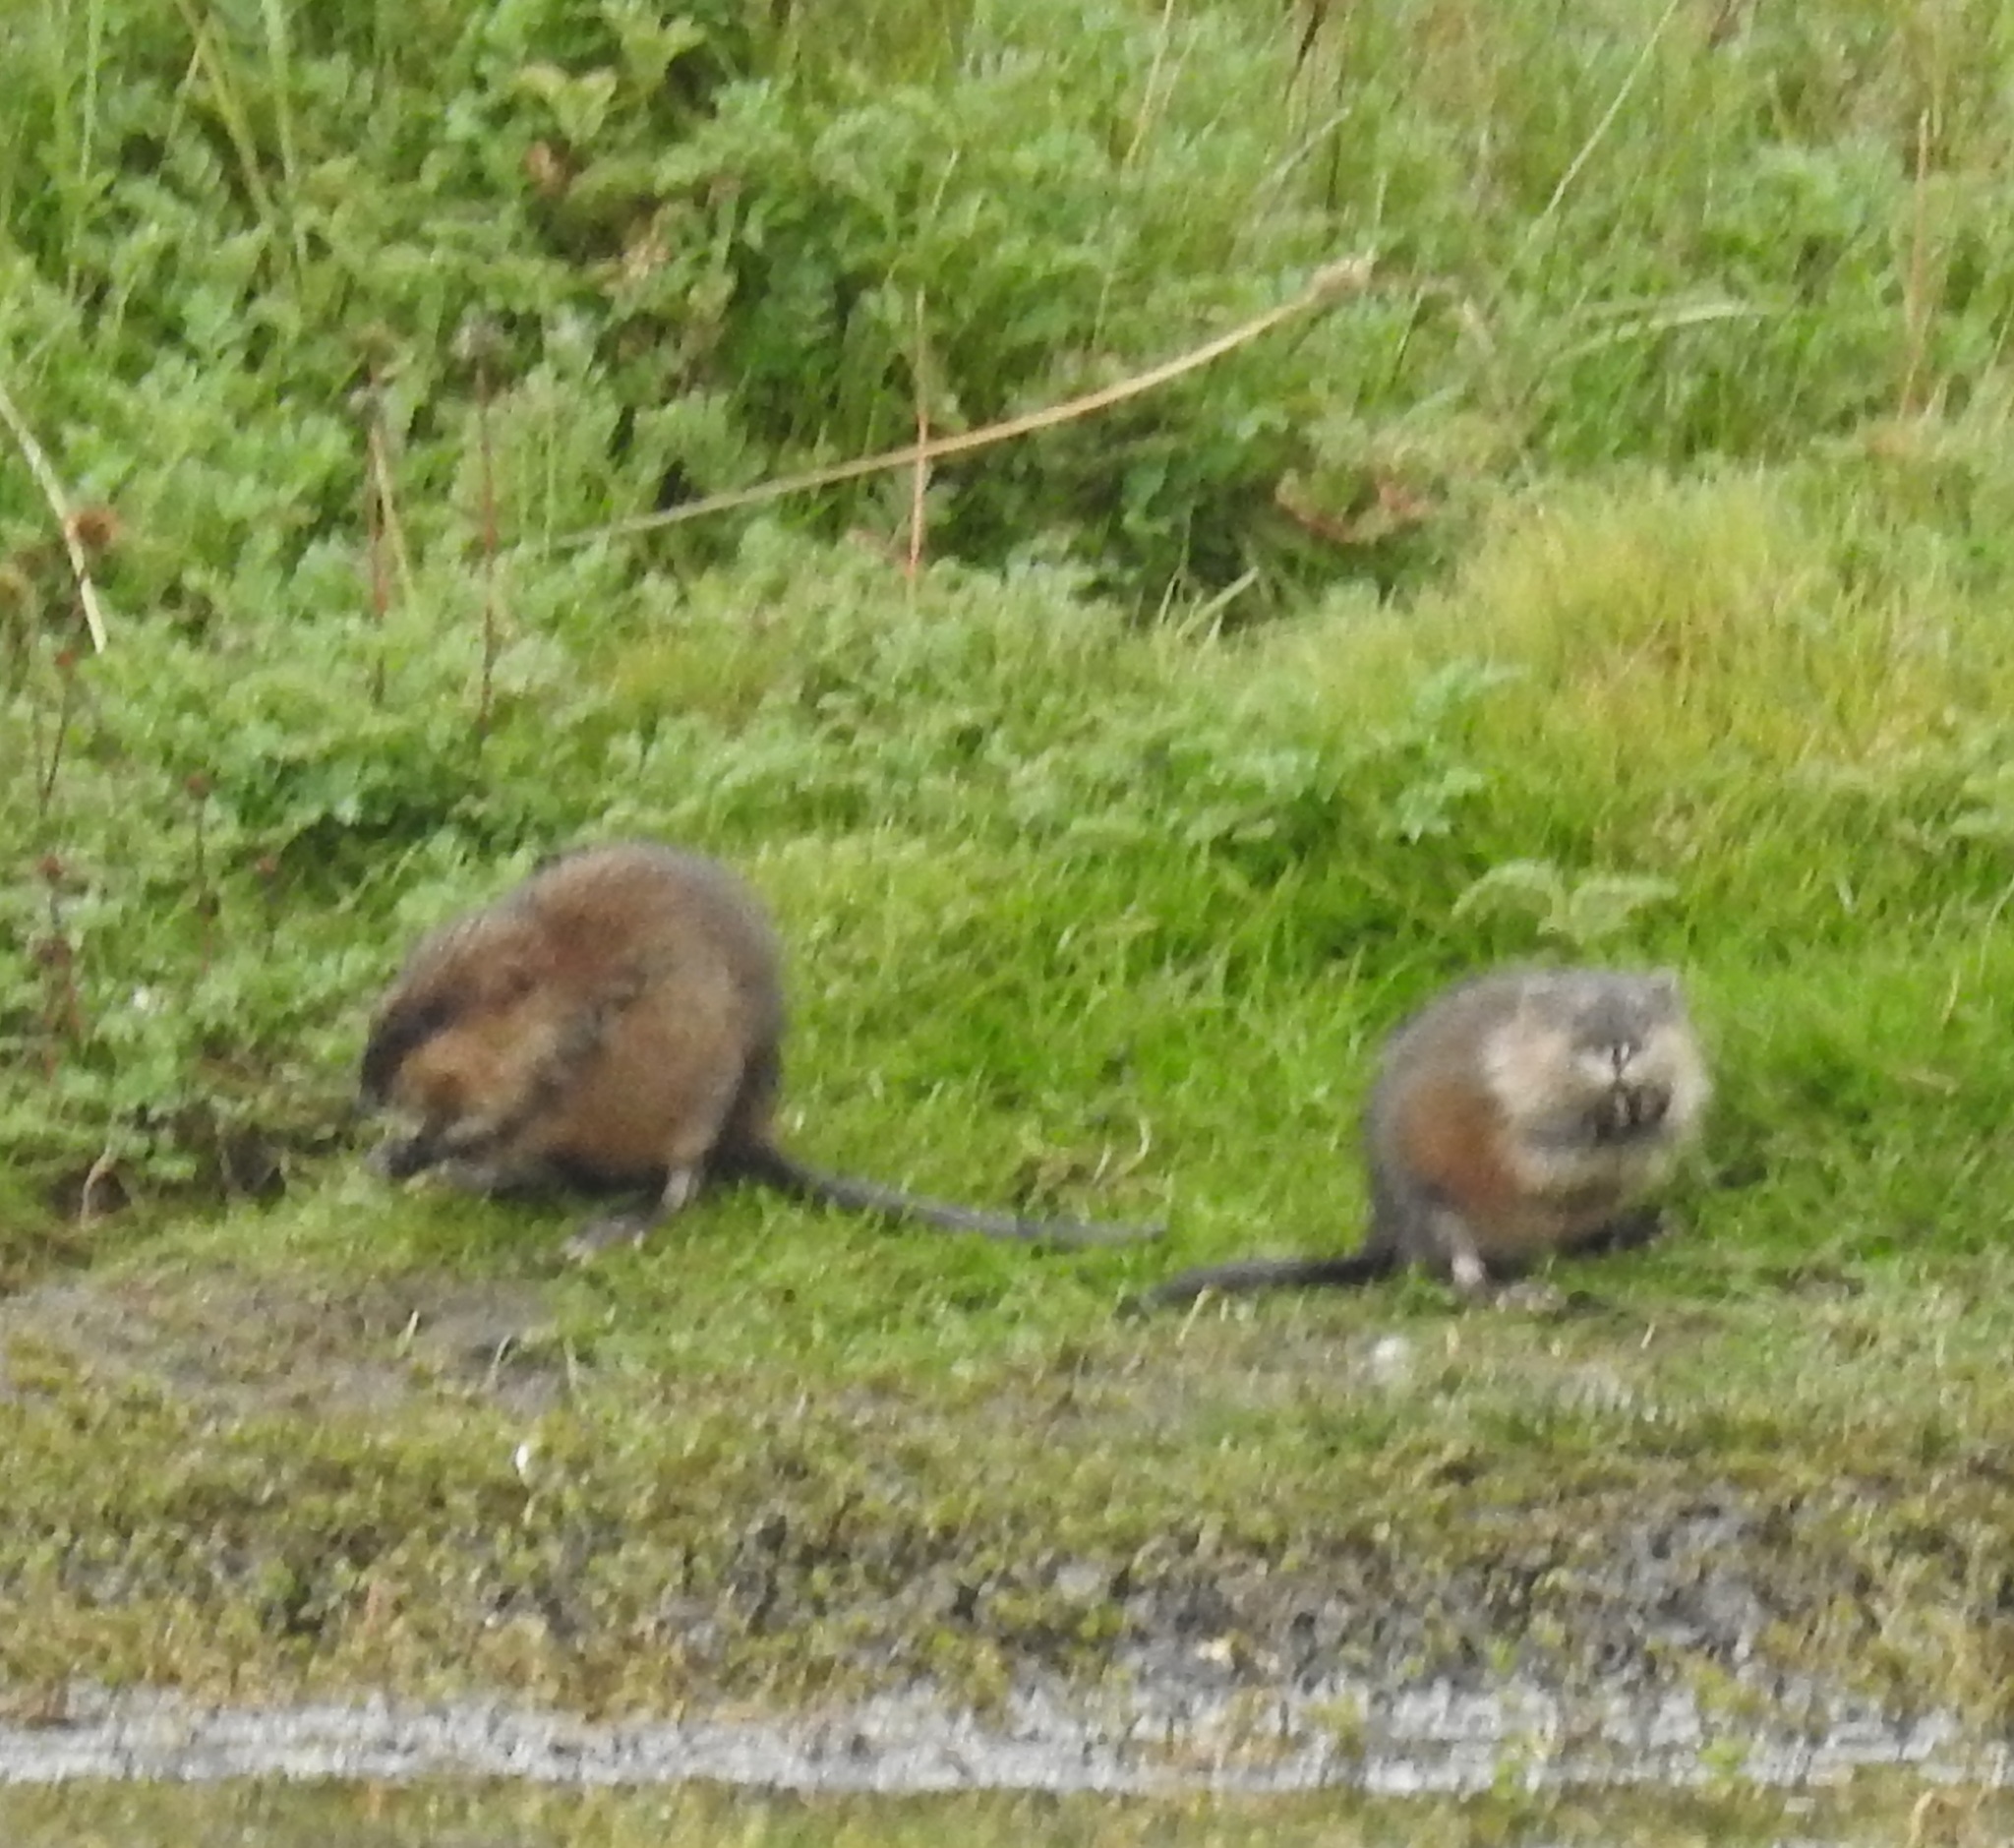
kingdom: Animalia
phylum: Chordata
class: Mammalia
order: Rodentia
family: Cricetidae
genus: Ondatra
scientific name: Ondatra zibethicus
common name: Muskrat
